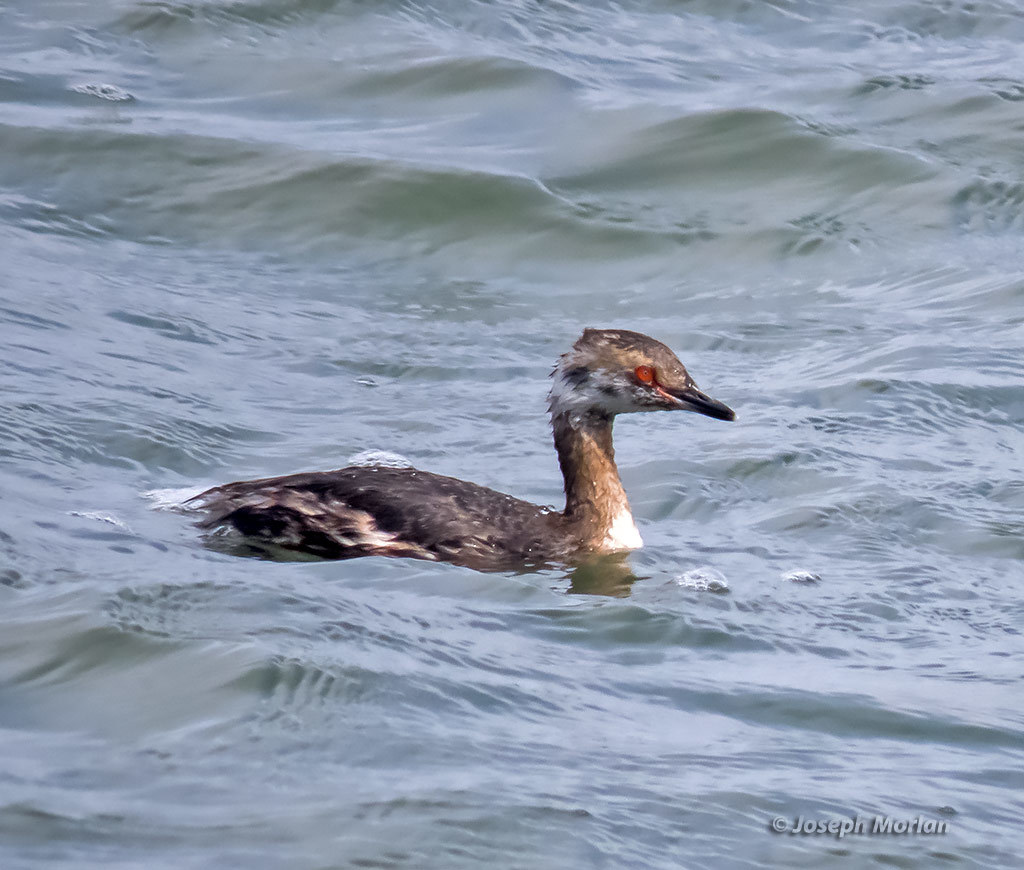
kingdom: Animalia
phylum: Chordata
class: Aves
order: Podicipediformes
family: Podicipedidae
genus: Podiceps
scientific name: Podiceps auritus
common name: Horned grebe
